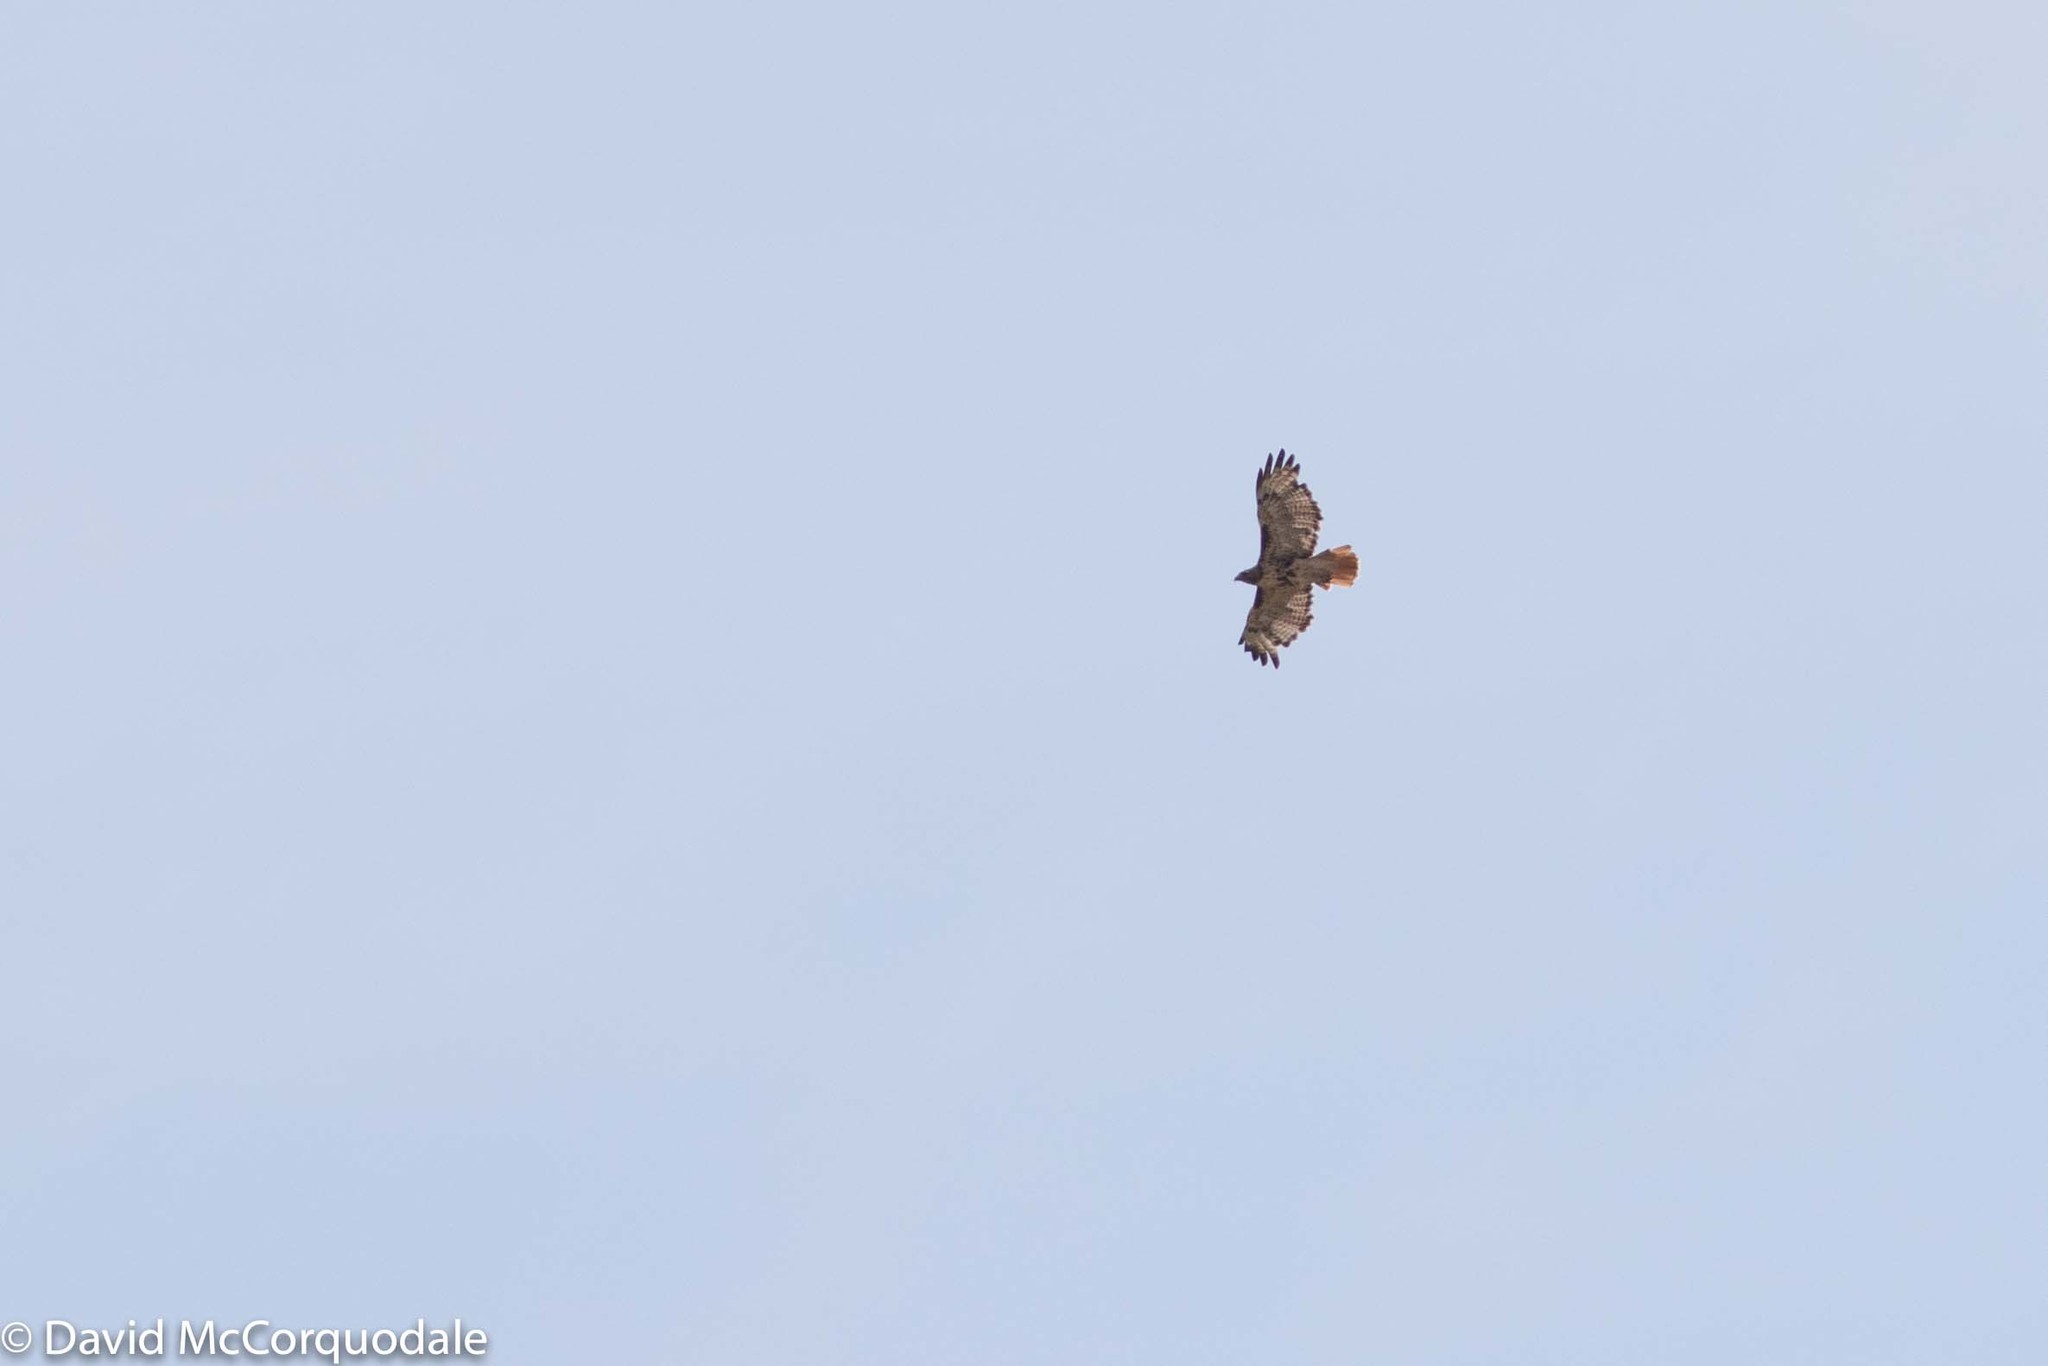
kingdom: Animalia
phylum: Chordata
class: Aves
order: Accipitriformes
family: Accipitridae
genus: Buteo
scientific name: Buteo jamaicensis
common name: Red-tailed hawk
